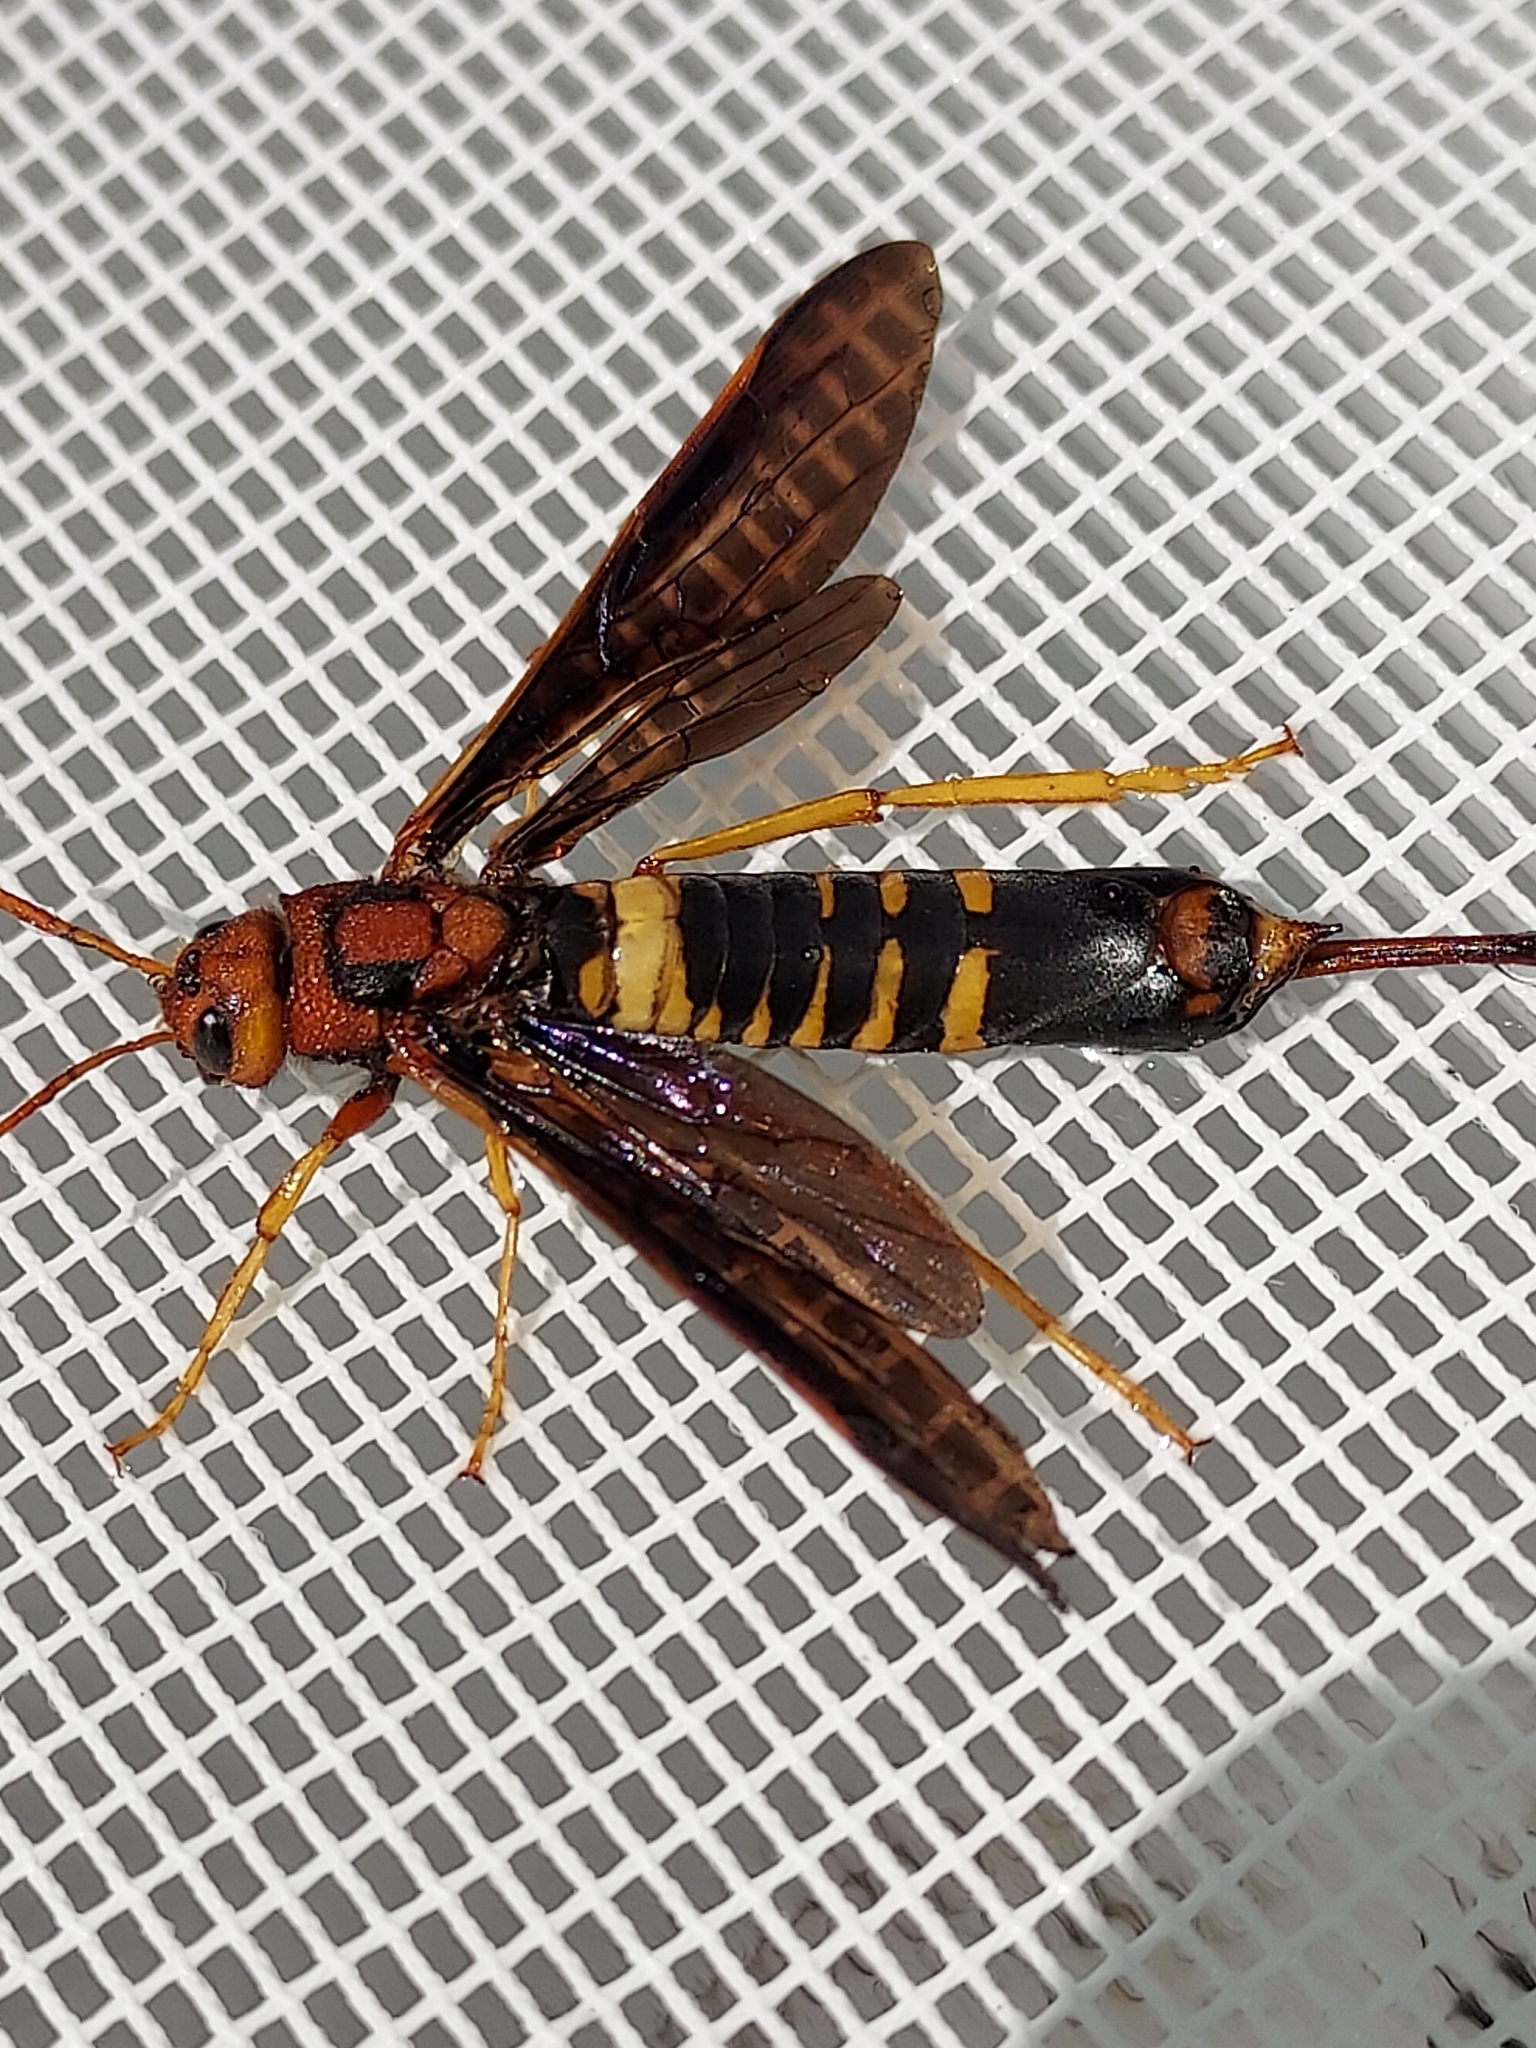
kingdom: Animalia
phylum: Arthropoda
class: Insecta
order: Hymenoptera
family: Siricidae
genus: Tremex
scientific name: Tremex columba
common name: Wasp
